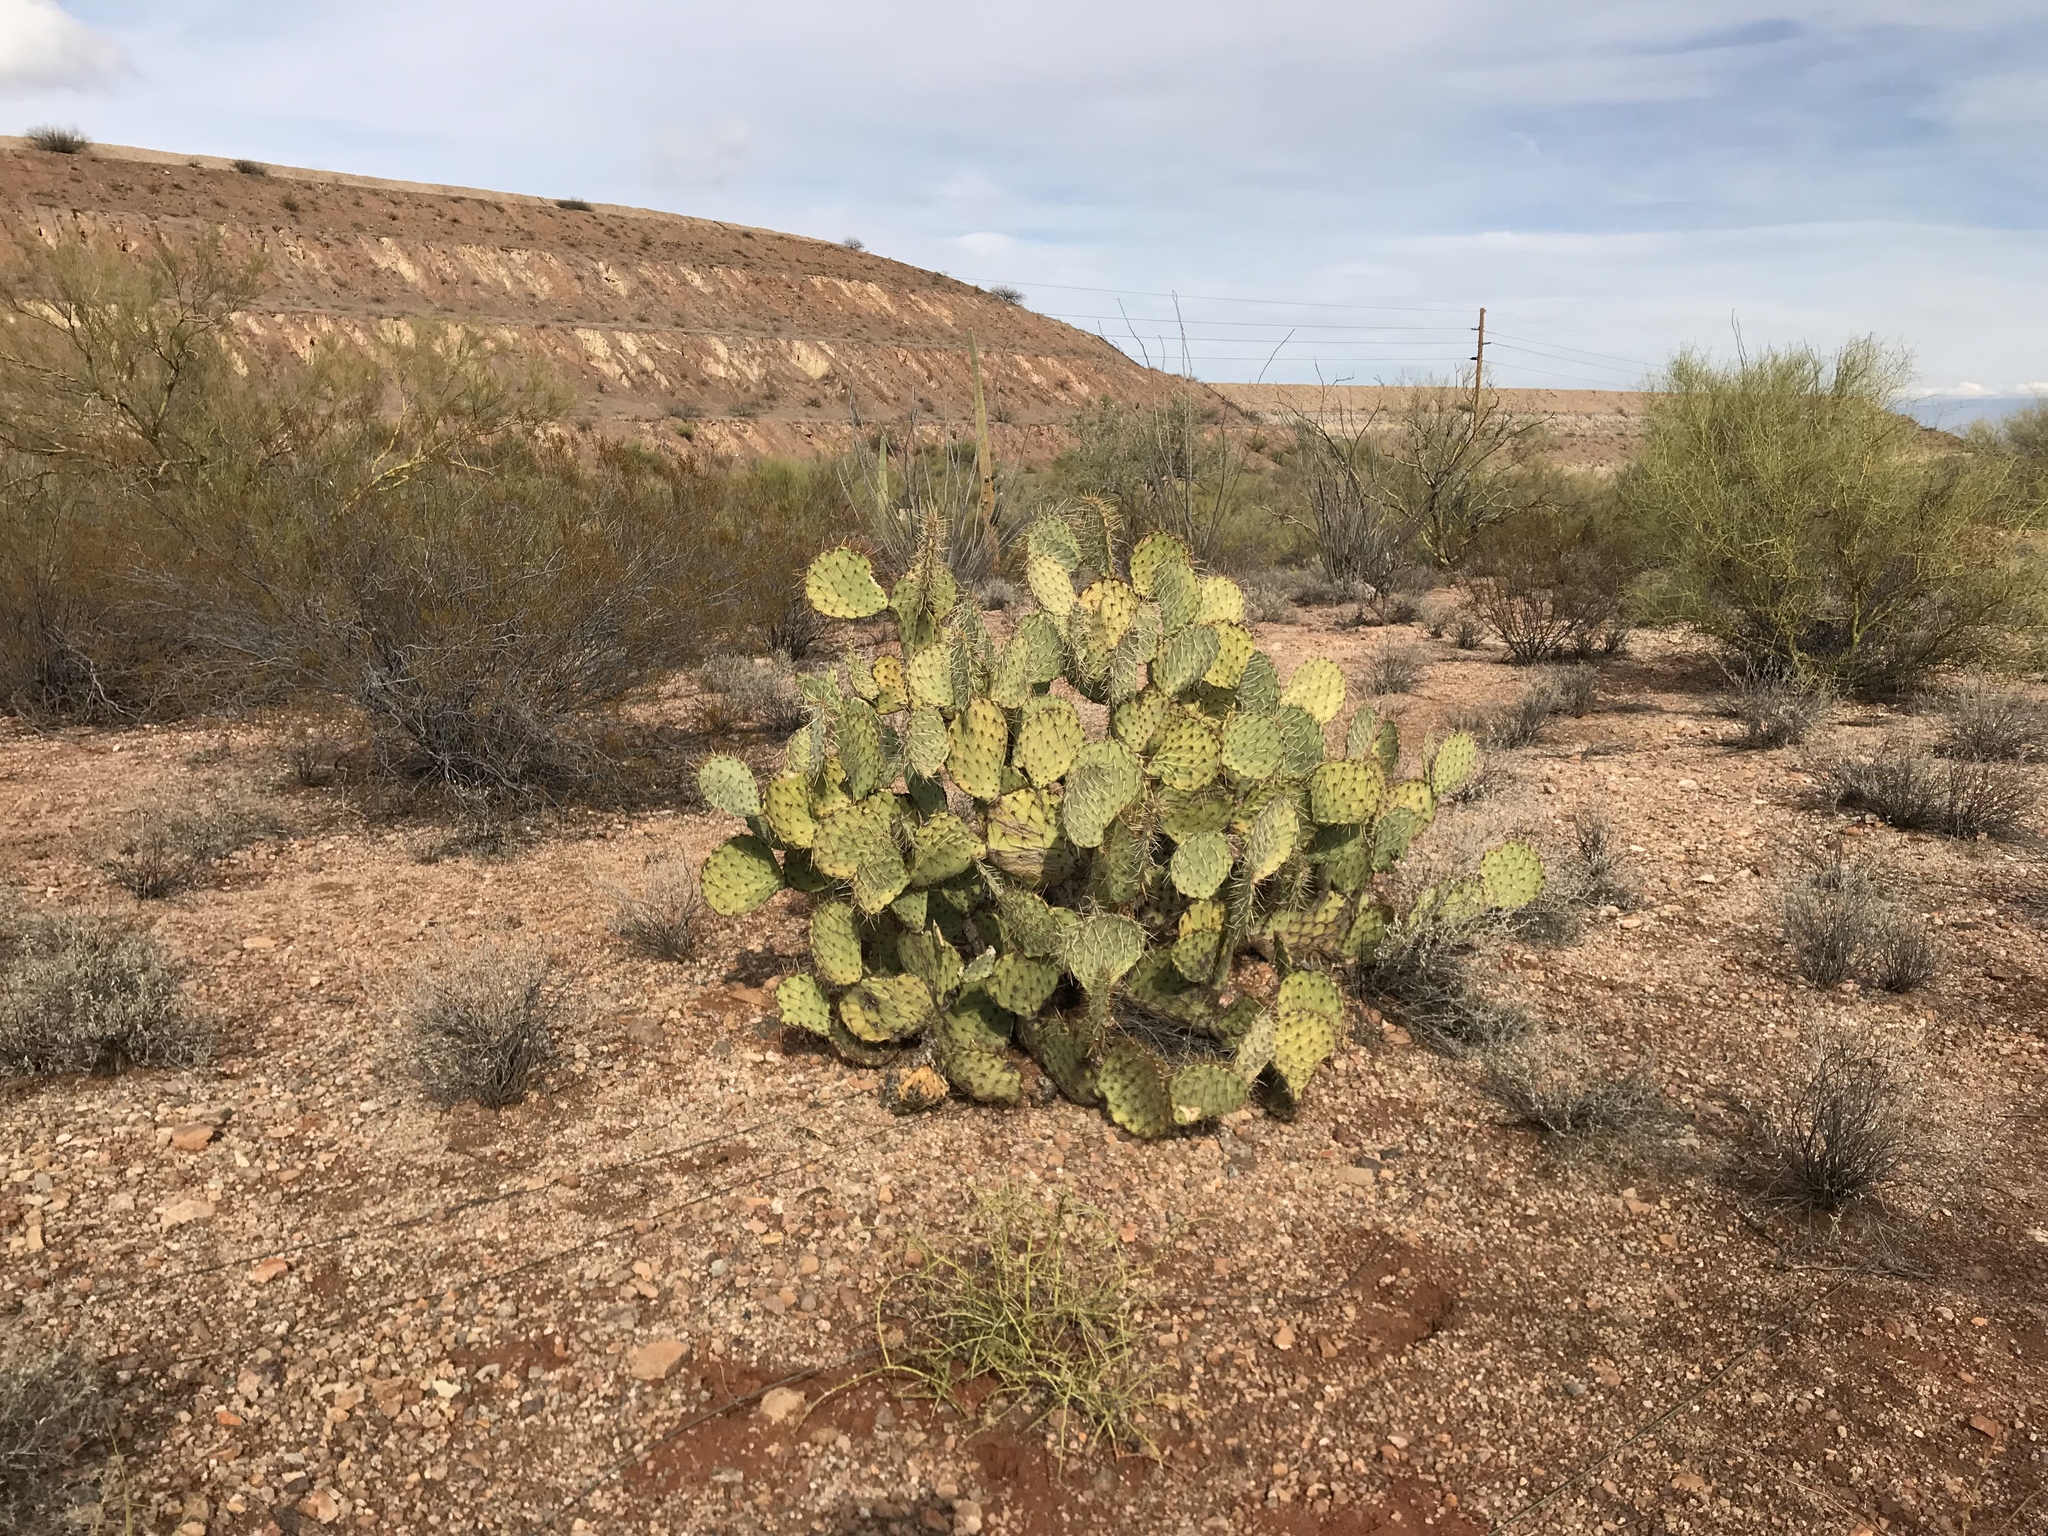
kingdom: Plantae
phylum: Tracheophyta
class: Magnoliopsida
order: Caryophyllales
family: Cactaceae
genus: Opuntia
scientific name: Opuntia orbiculata
